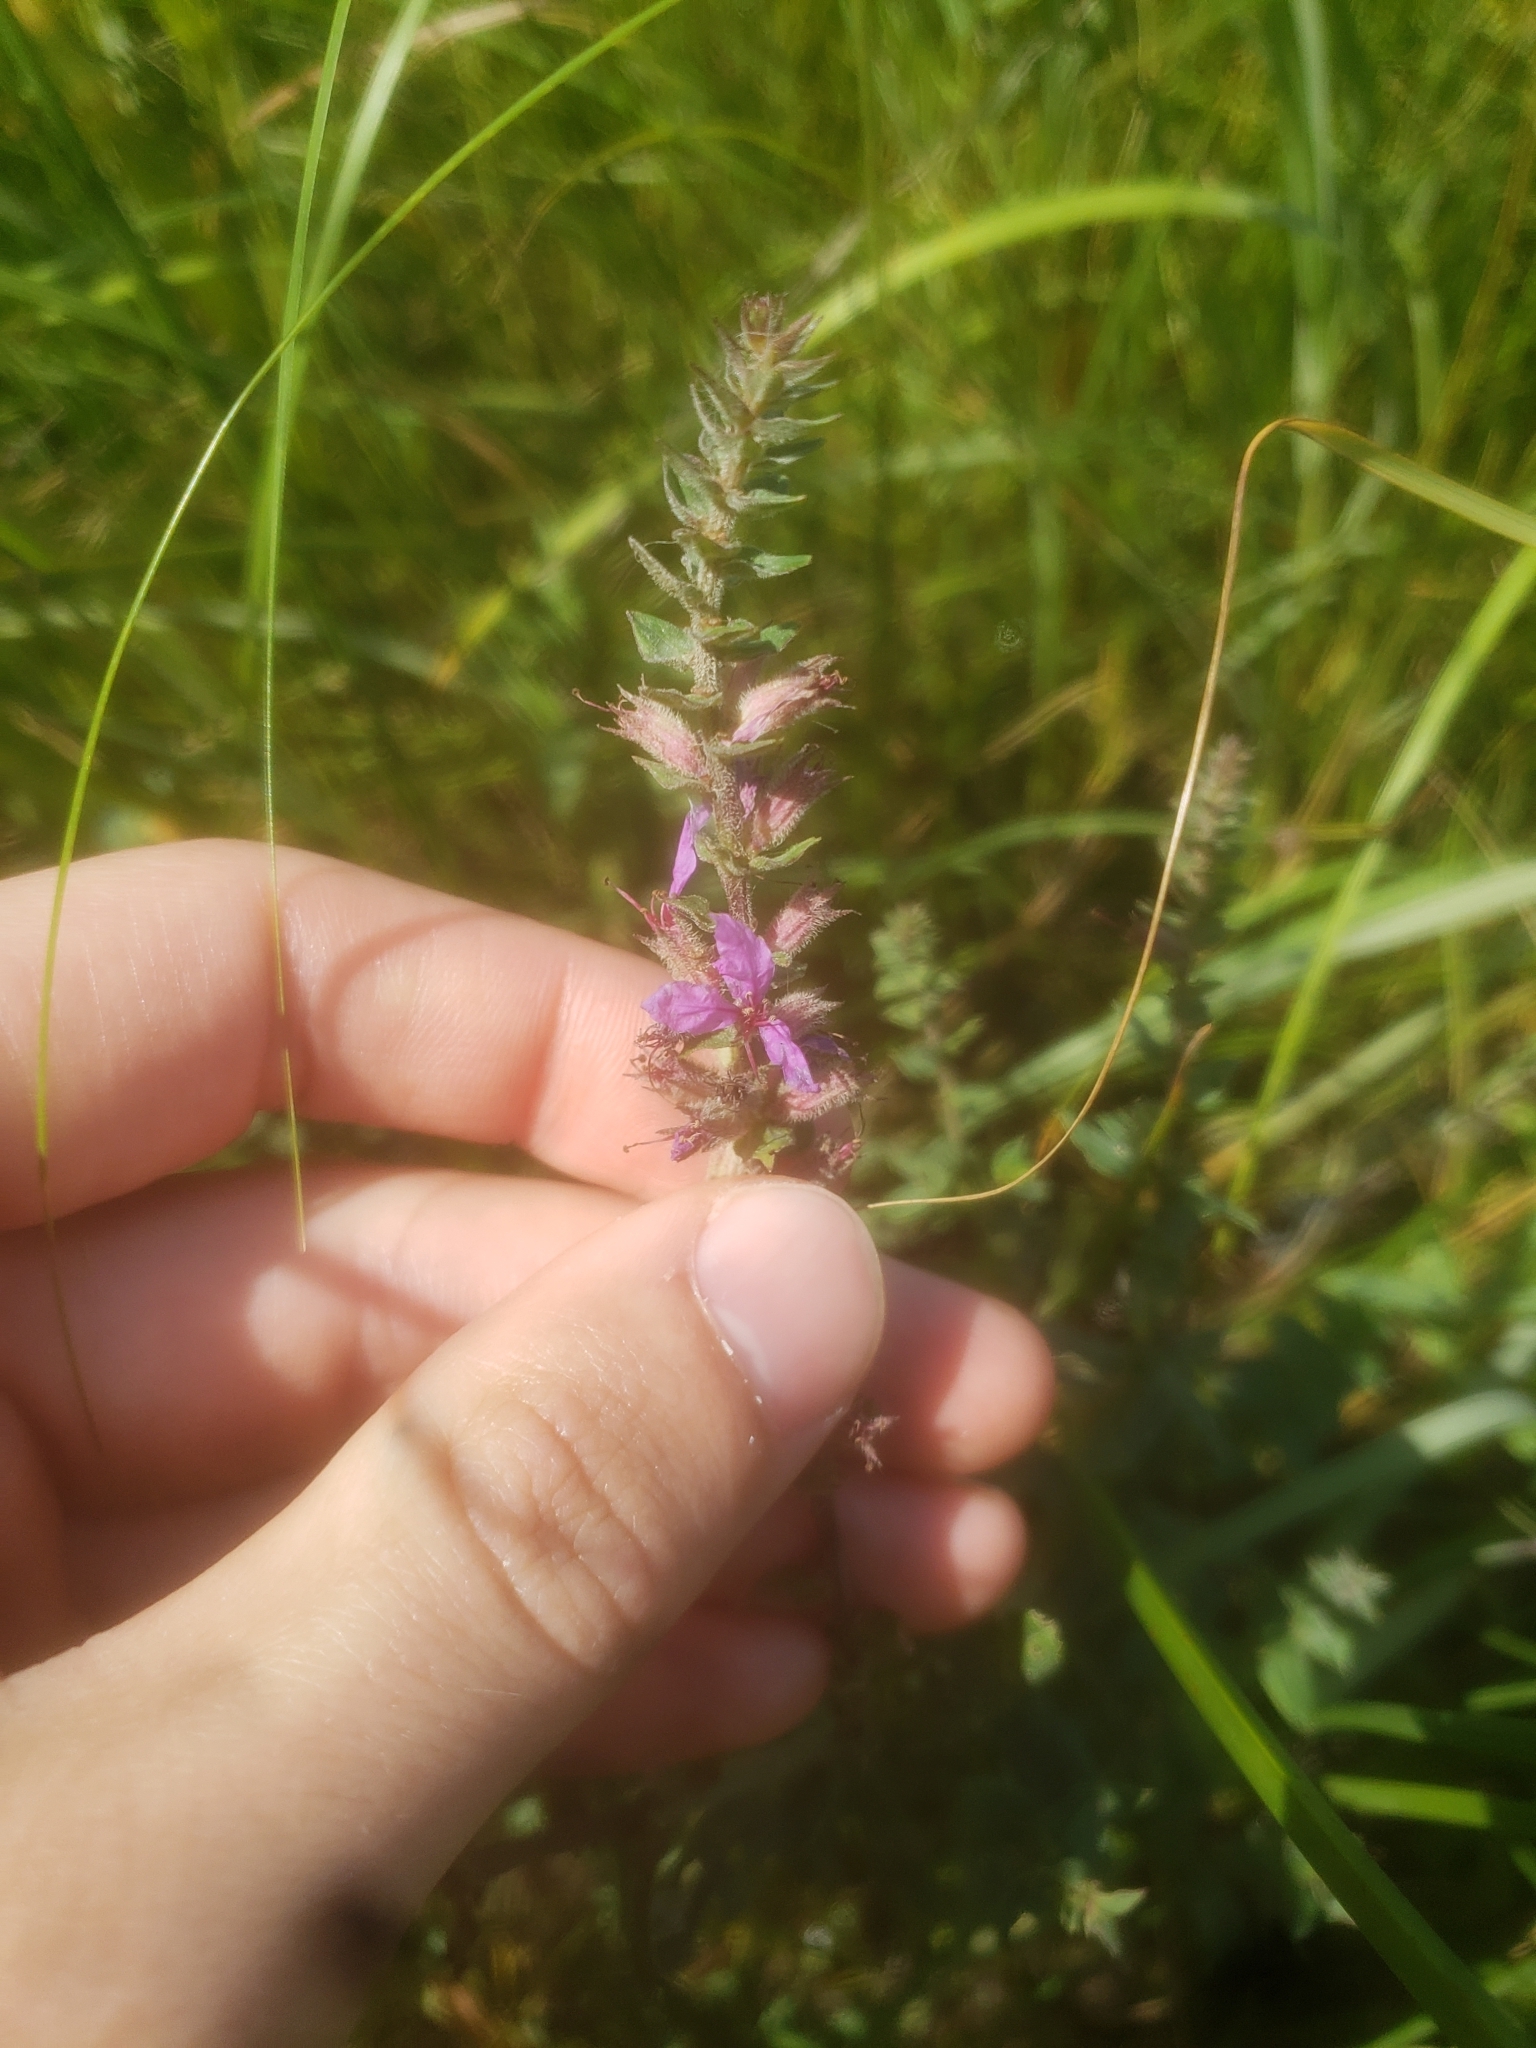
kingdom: Plantae
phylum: Tracheophyta
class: Magnoliopsida
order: Myrtales
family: Lythraceae
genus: Lythrum
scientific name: Lythrum salicaria
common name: Purple loosestrife
